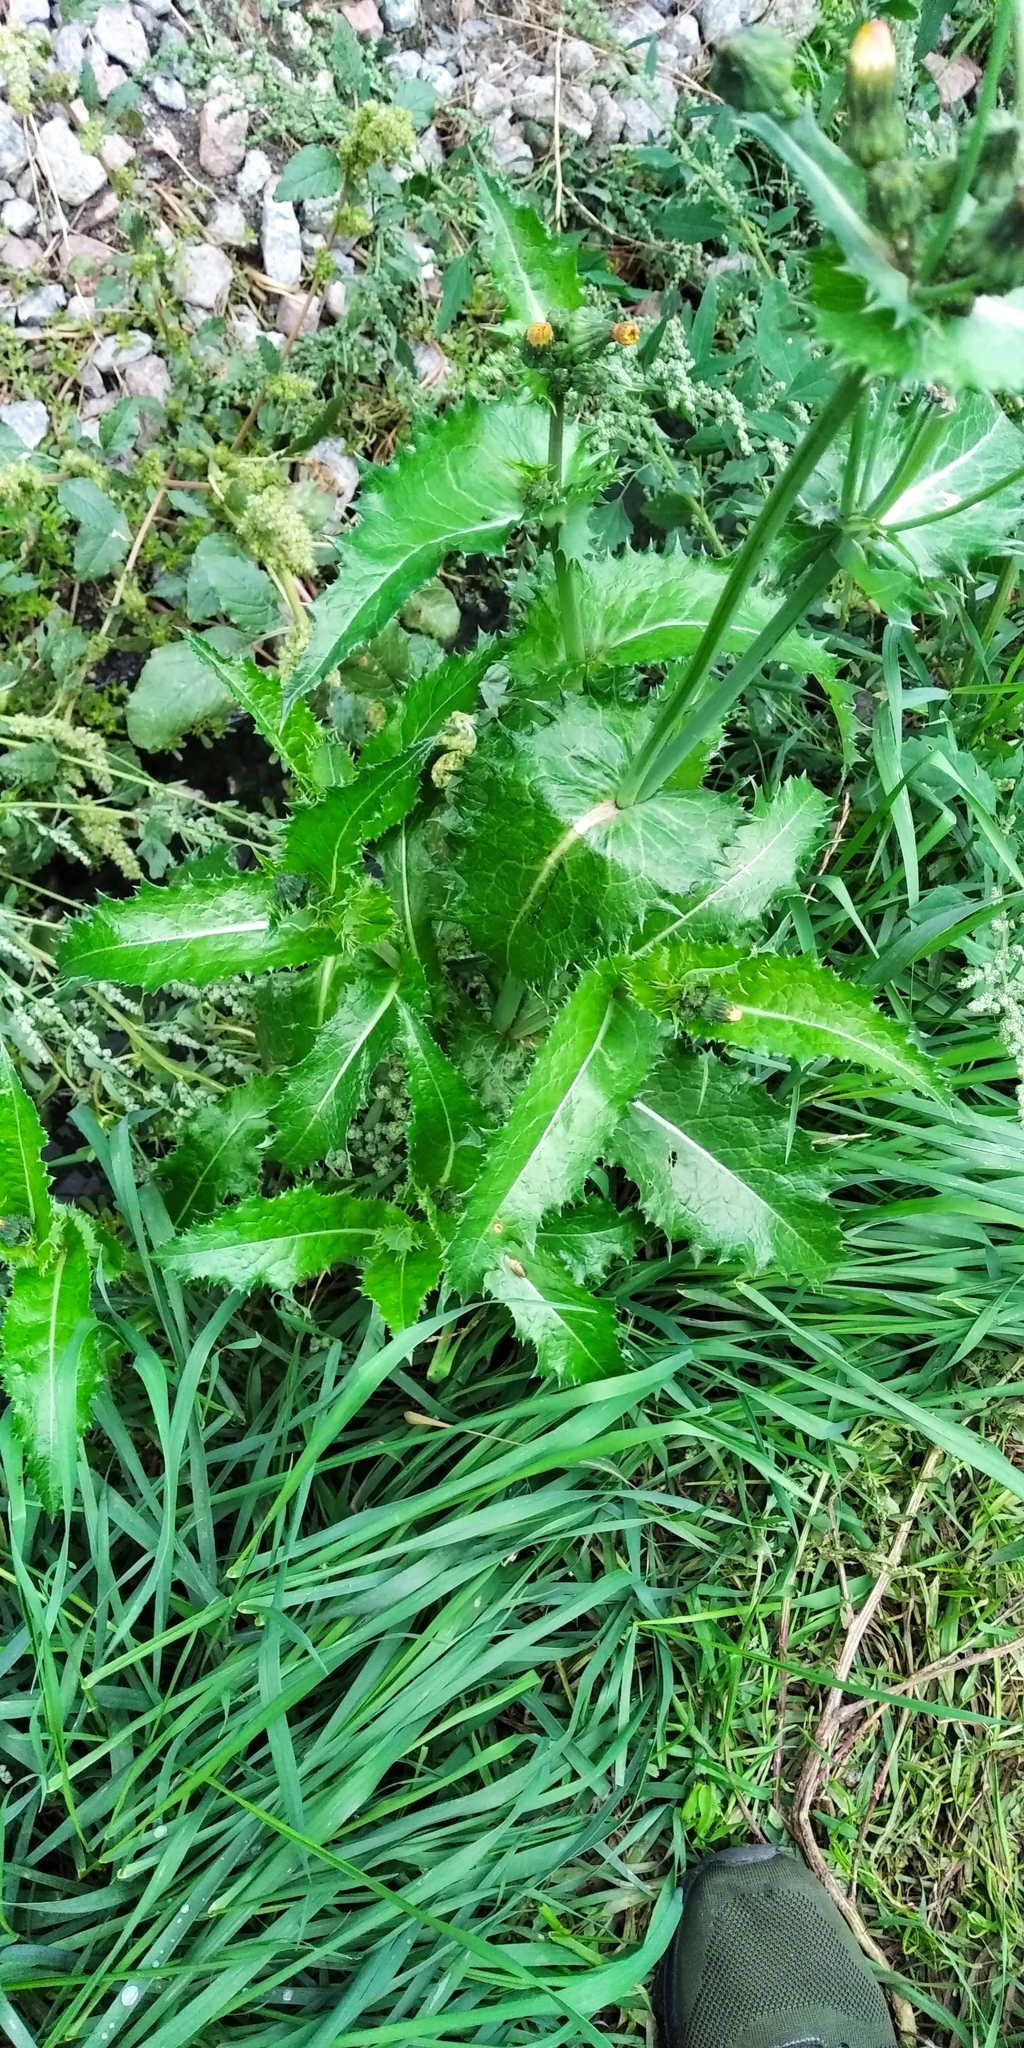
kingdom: Plantae
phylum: Tracheophyta
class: Magnoliopsida
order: Asterales
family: Asteraceae
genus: Sonchus
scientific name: Sonchus asper
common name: Prickly sow-thistle
